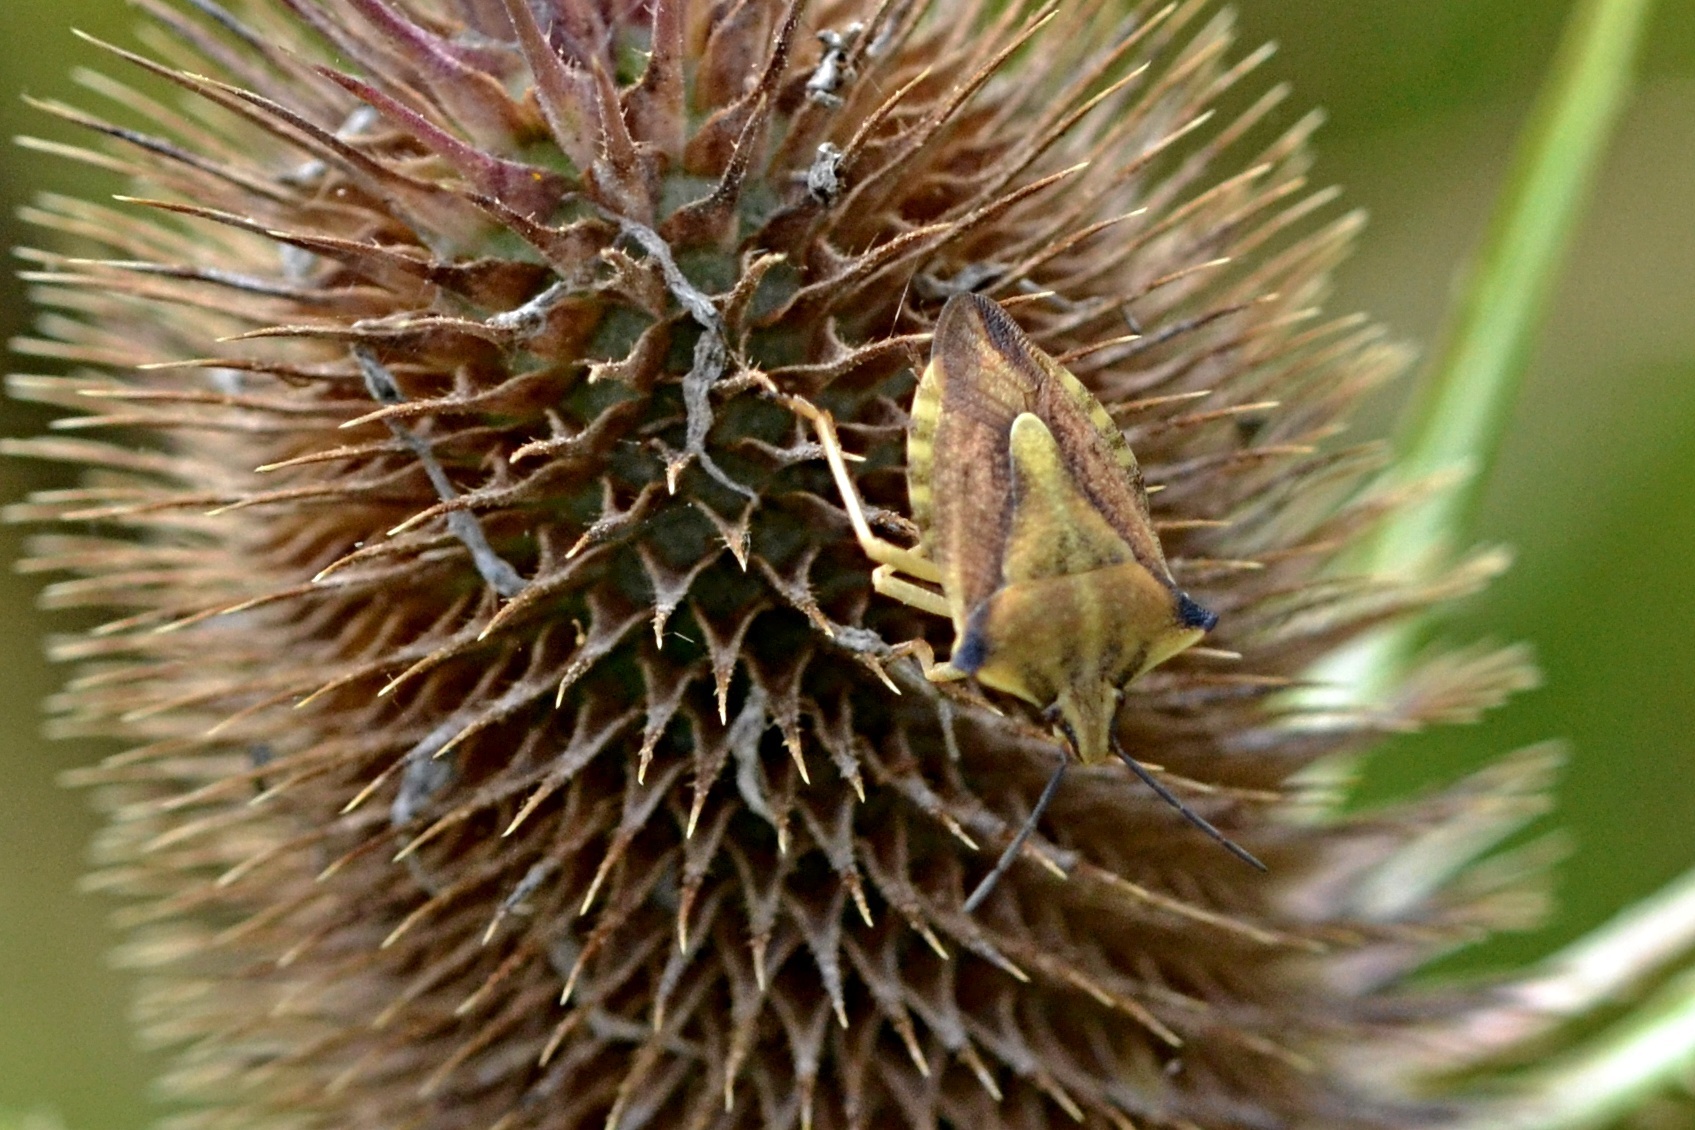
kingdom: Animalia
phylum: Arthropoda
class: Insecta
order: Hemiptera
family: Pentatomidae
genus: Carpocoris
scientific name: Carpocoris fuscispinus
